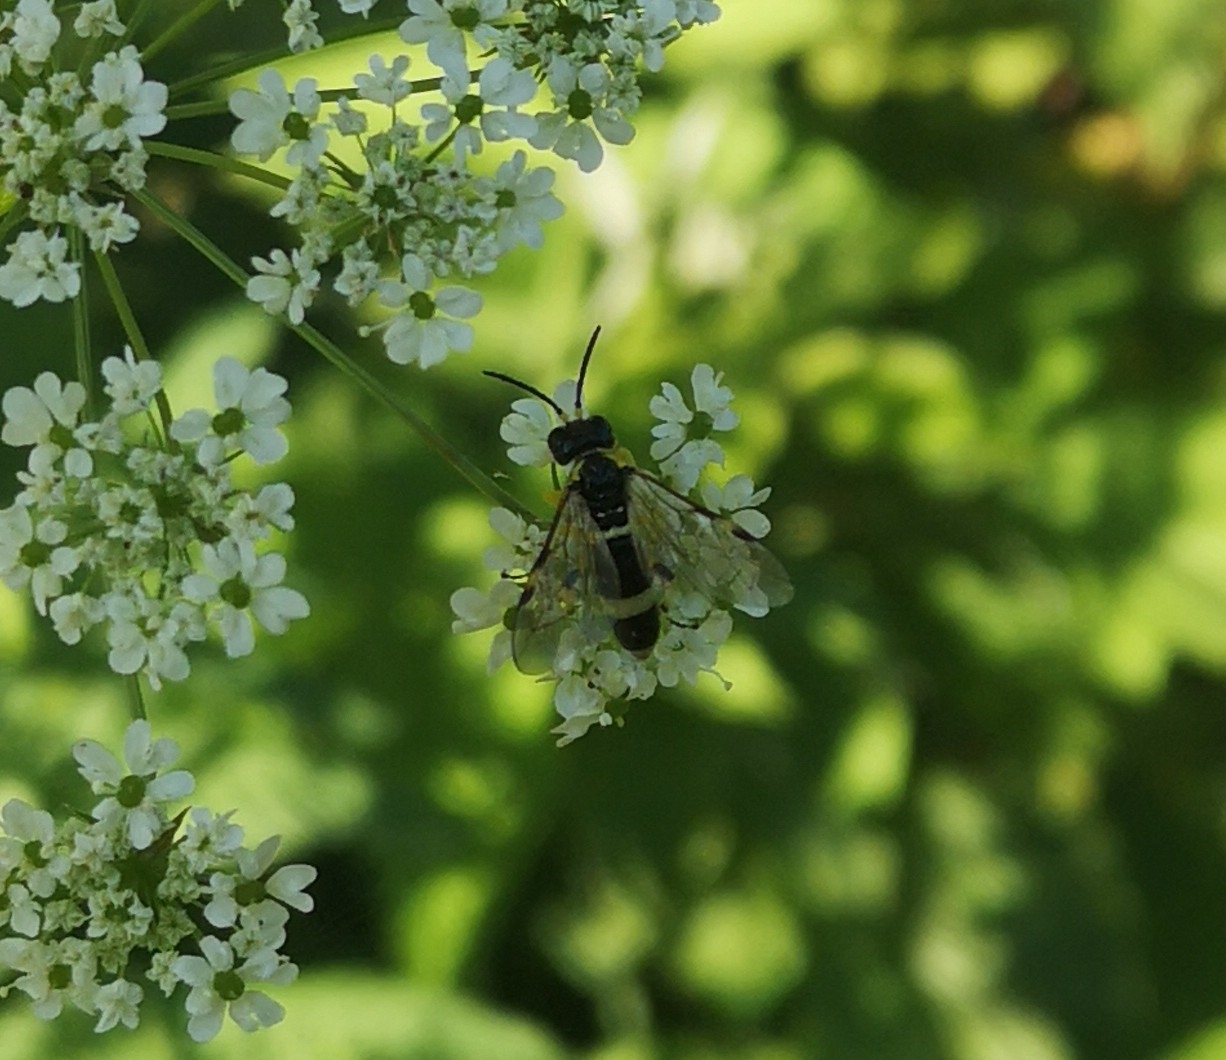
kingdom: Animalia
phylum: Arthropoda
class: Insecta
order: Hymenoptera
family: Tenthredinidae
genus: Tenthredo
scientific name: Tenthredo zonula
